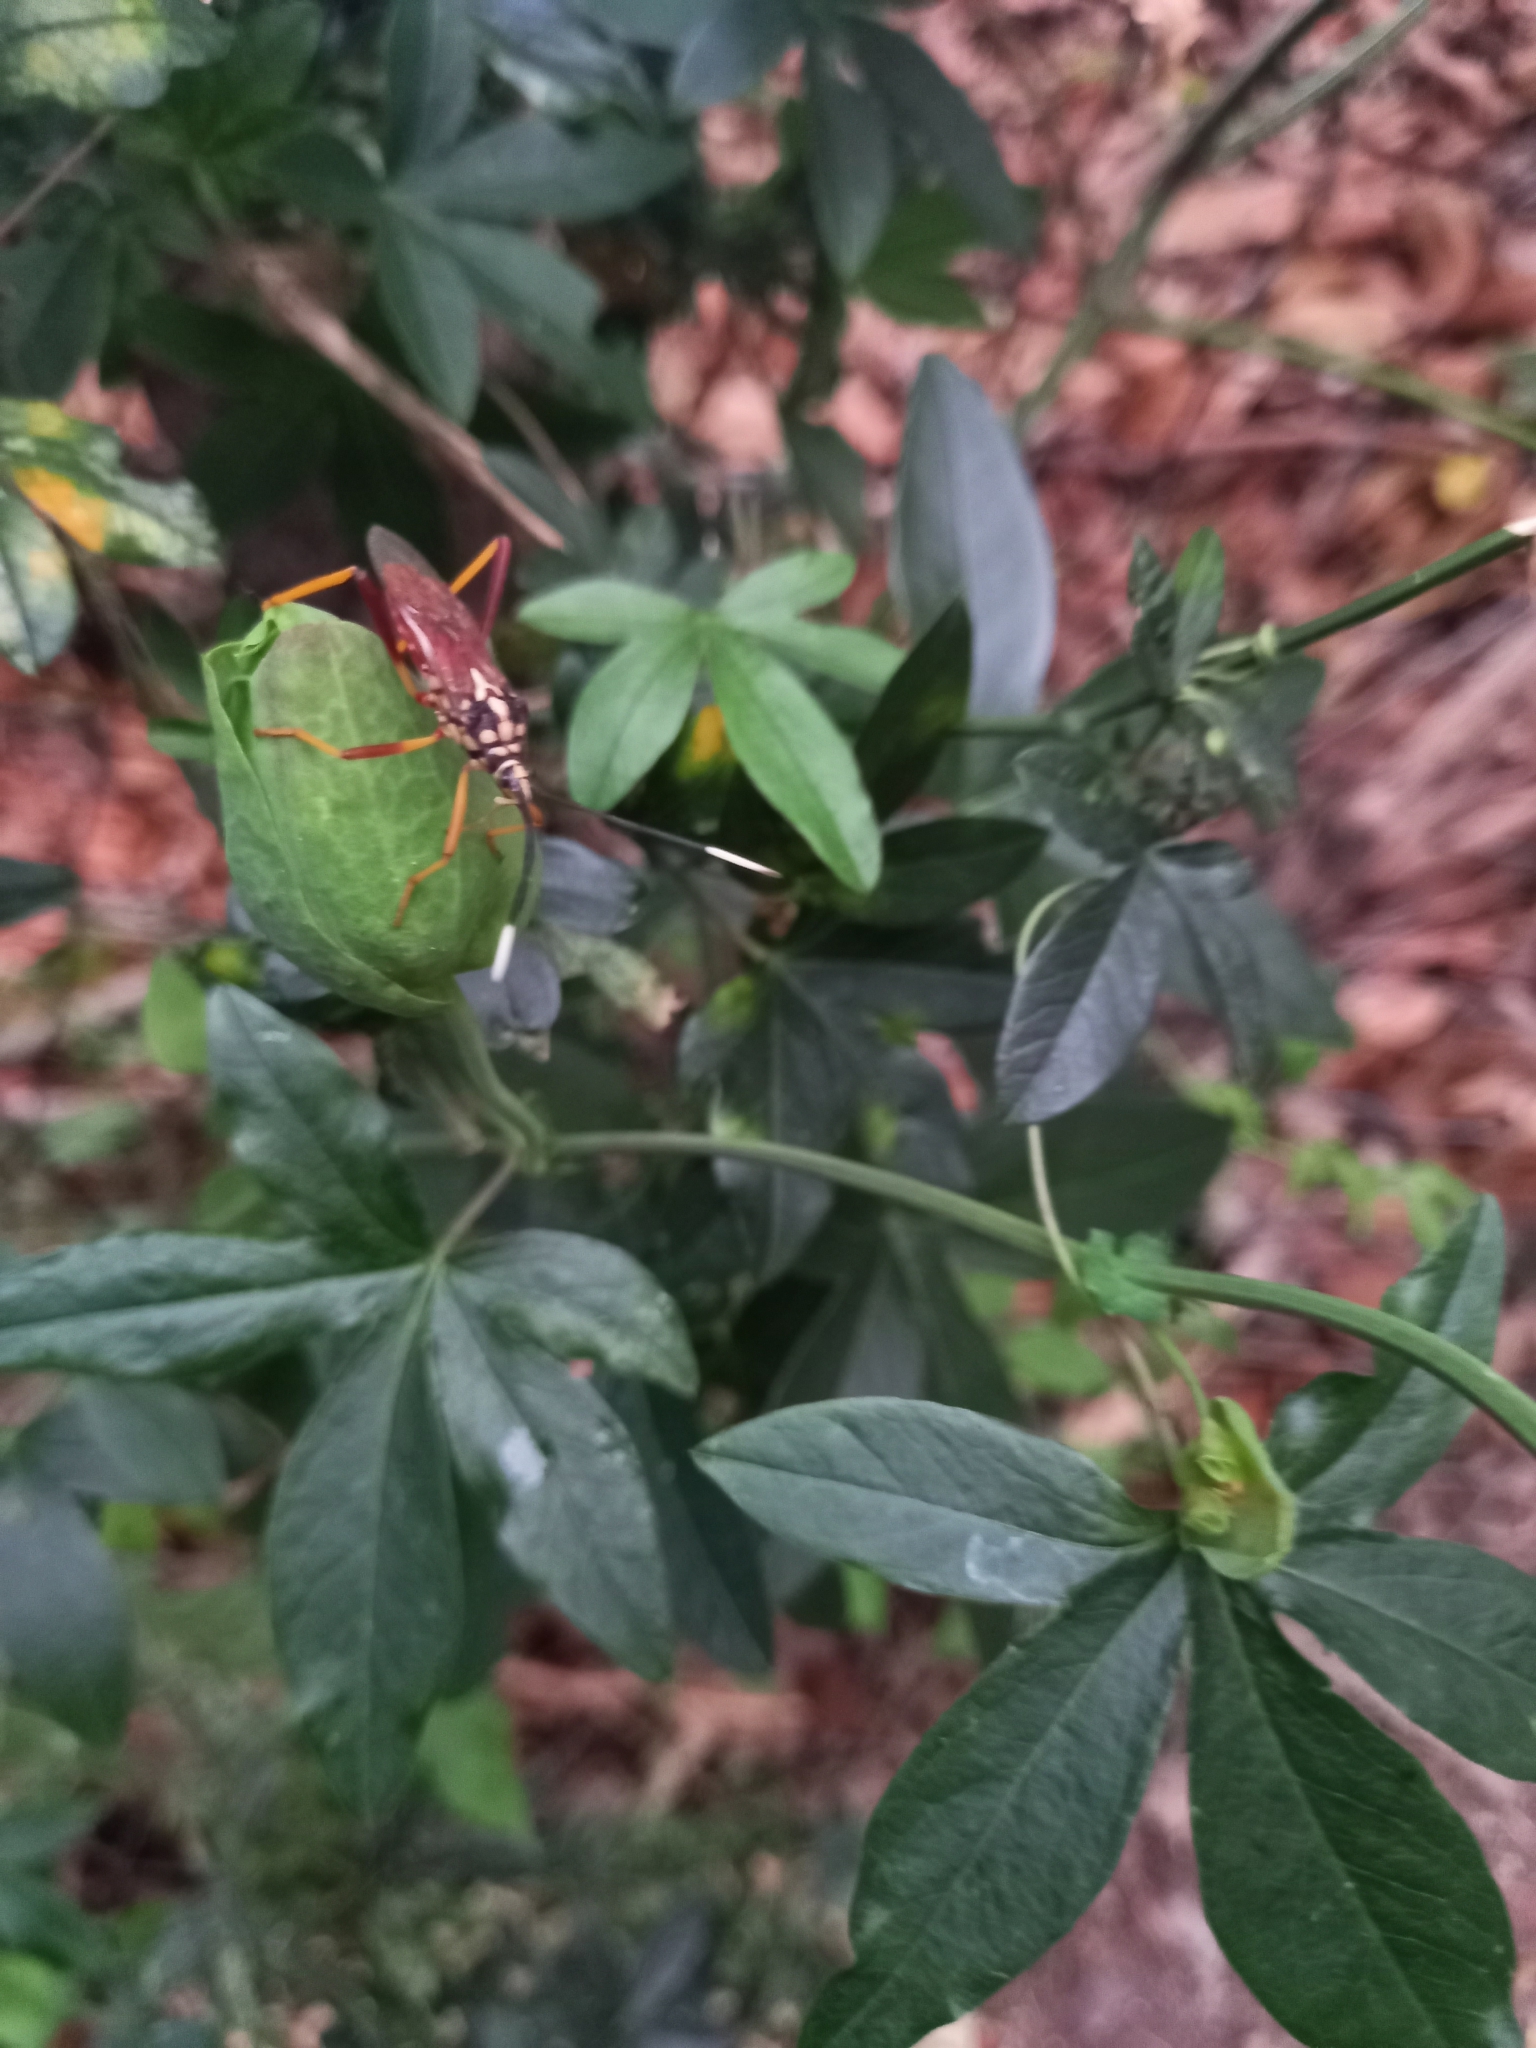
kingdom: Animalia
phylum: Arthropoda
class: Insecta
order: Hemiptera
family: Coreidae
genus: Holhymenia
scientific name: Holhymenia histrio
